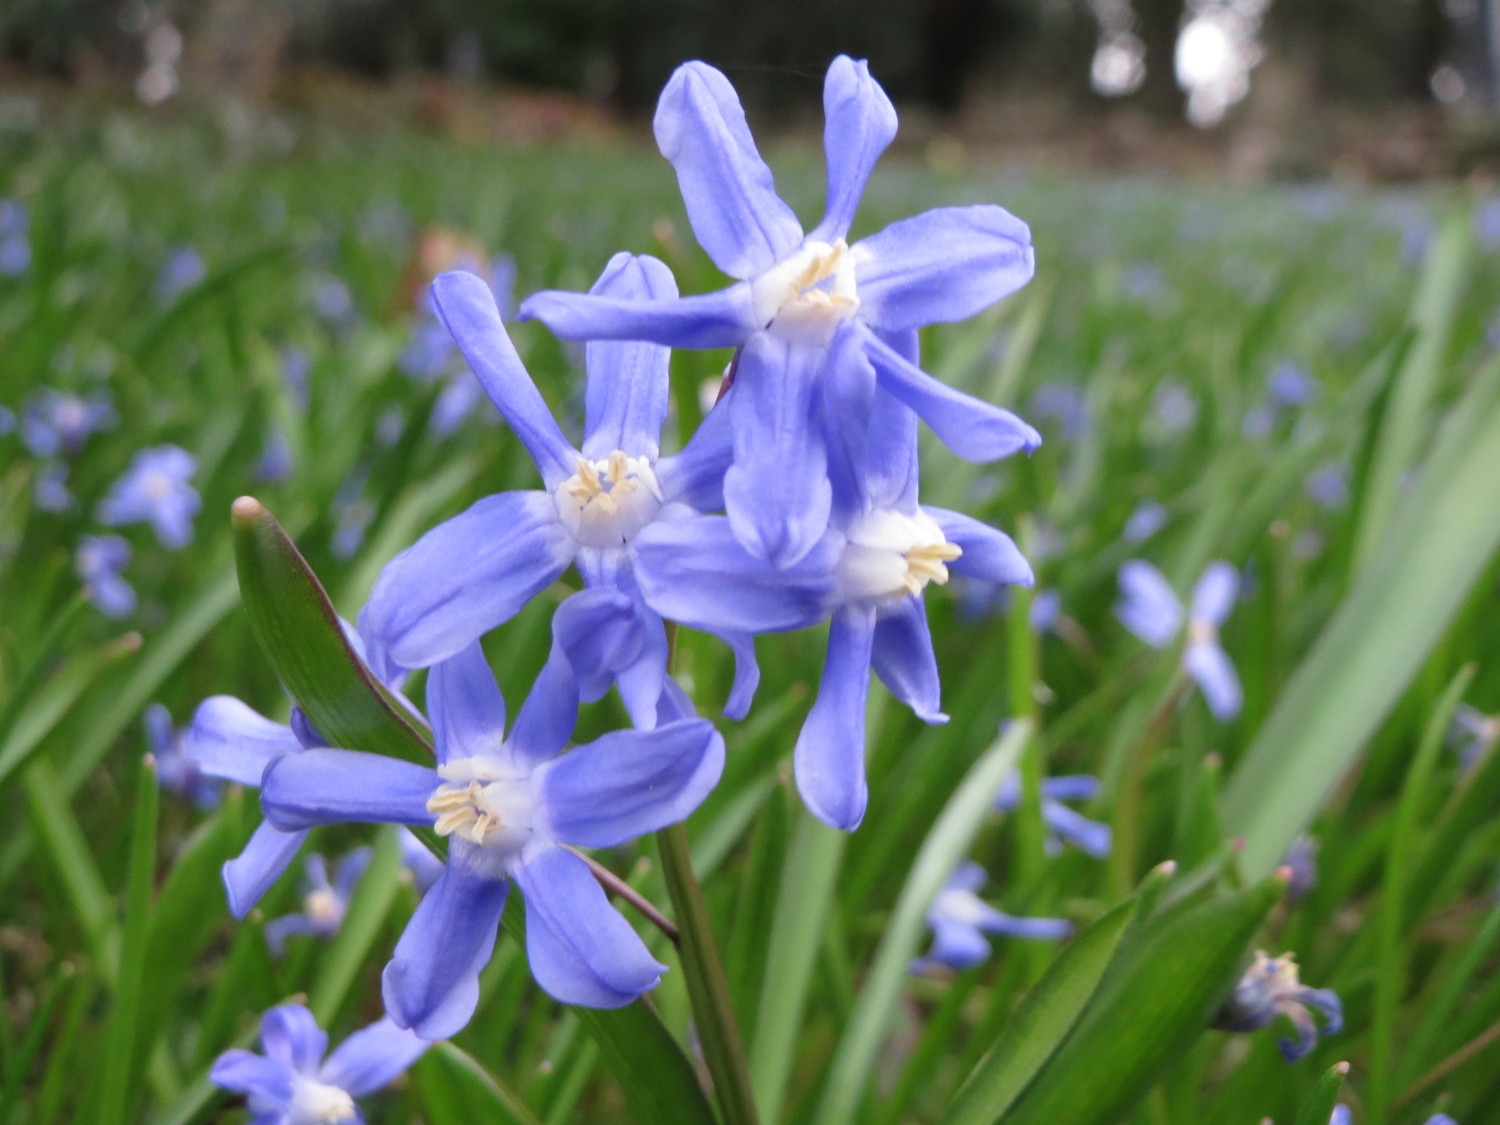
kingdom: Plantae
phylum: Tracheophyta
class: Liliopsida
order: Asparagales
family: Asparagaceae
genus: Scilla
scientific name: Scilla luciliae
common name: Boissier's glory-of-the-snow
